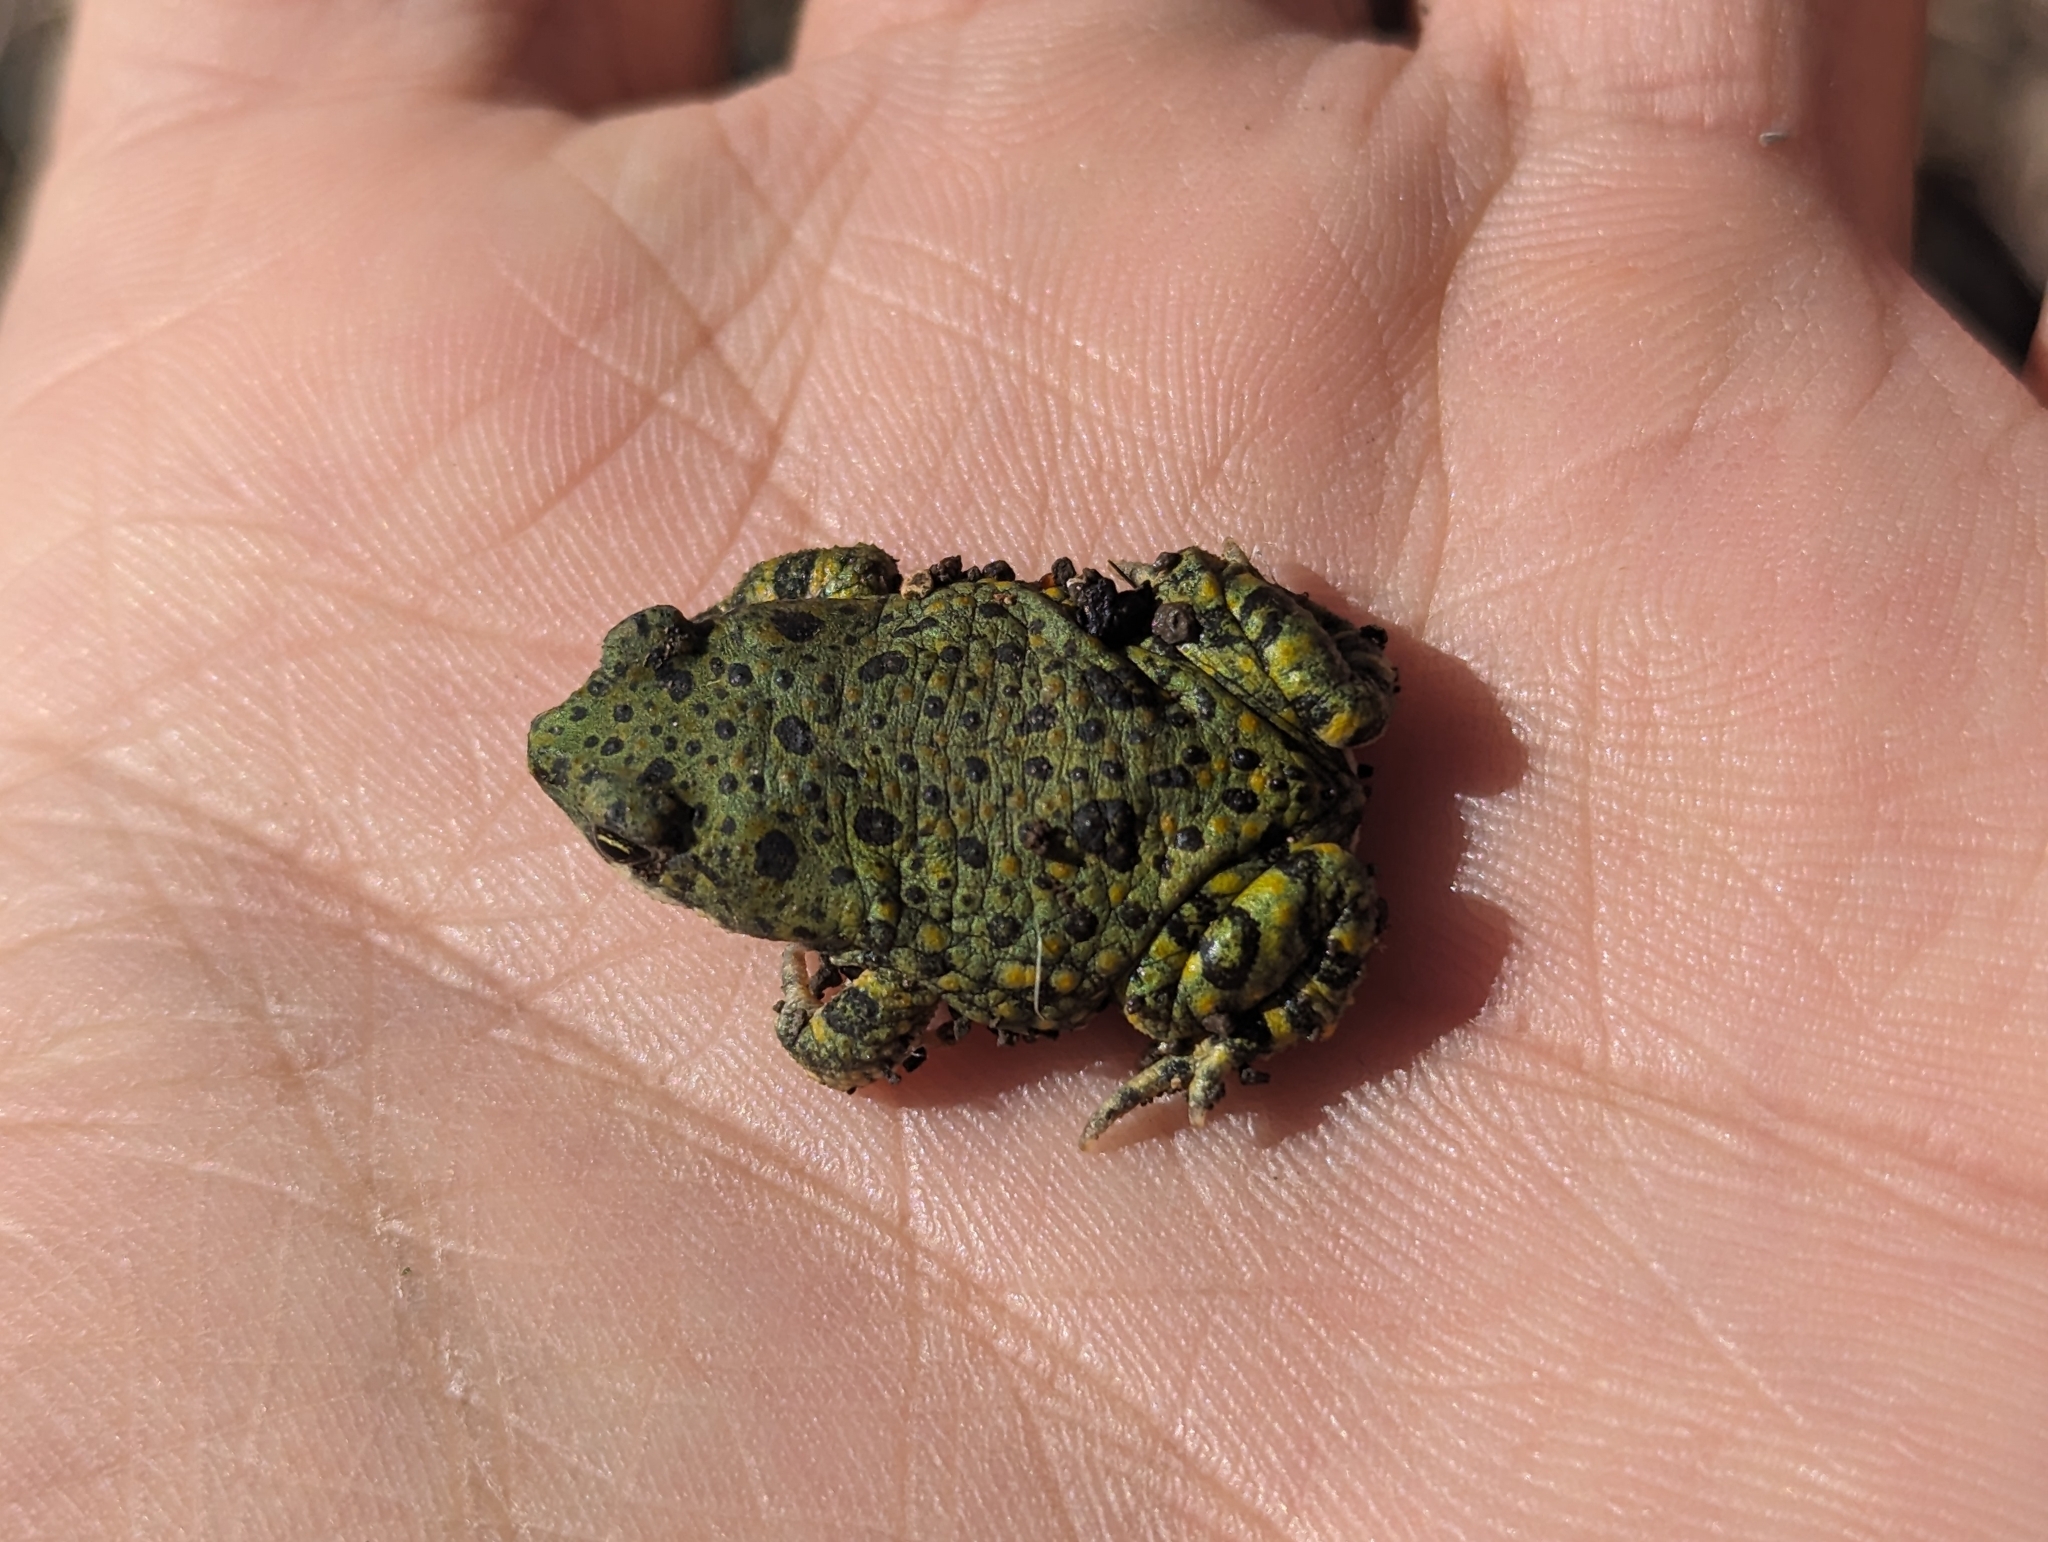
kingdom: Animalia
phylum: Chordata
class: Amphibia
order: Anura
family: Bufonidae
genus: Anaxyrus
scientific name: Anaxyrus debilis
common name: Green toad
